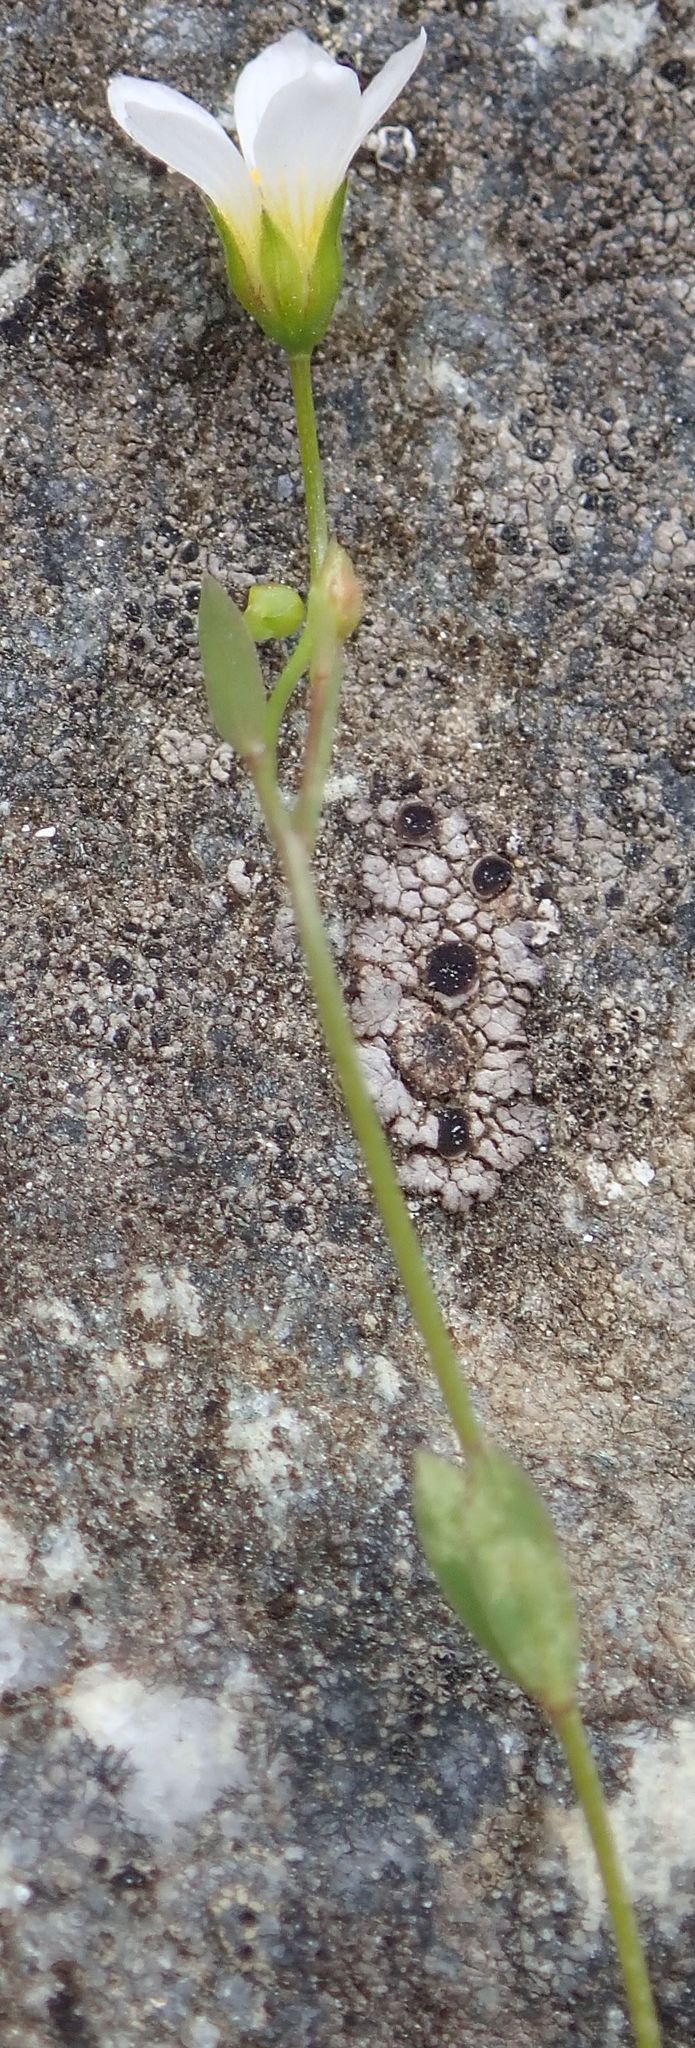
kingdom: Plantae
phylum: Tracheophyta
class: Magnoliopsida
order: Malpighiales
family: Linaceae
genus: Linum
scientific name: Linum catharticum
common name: Fairy flax
